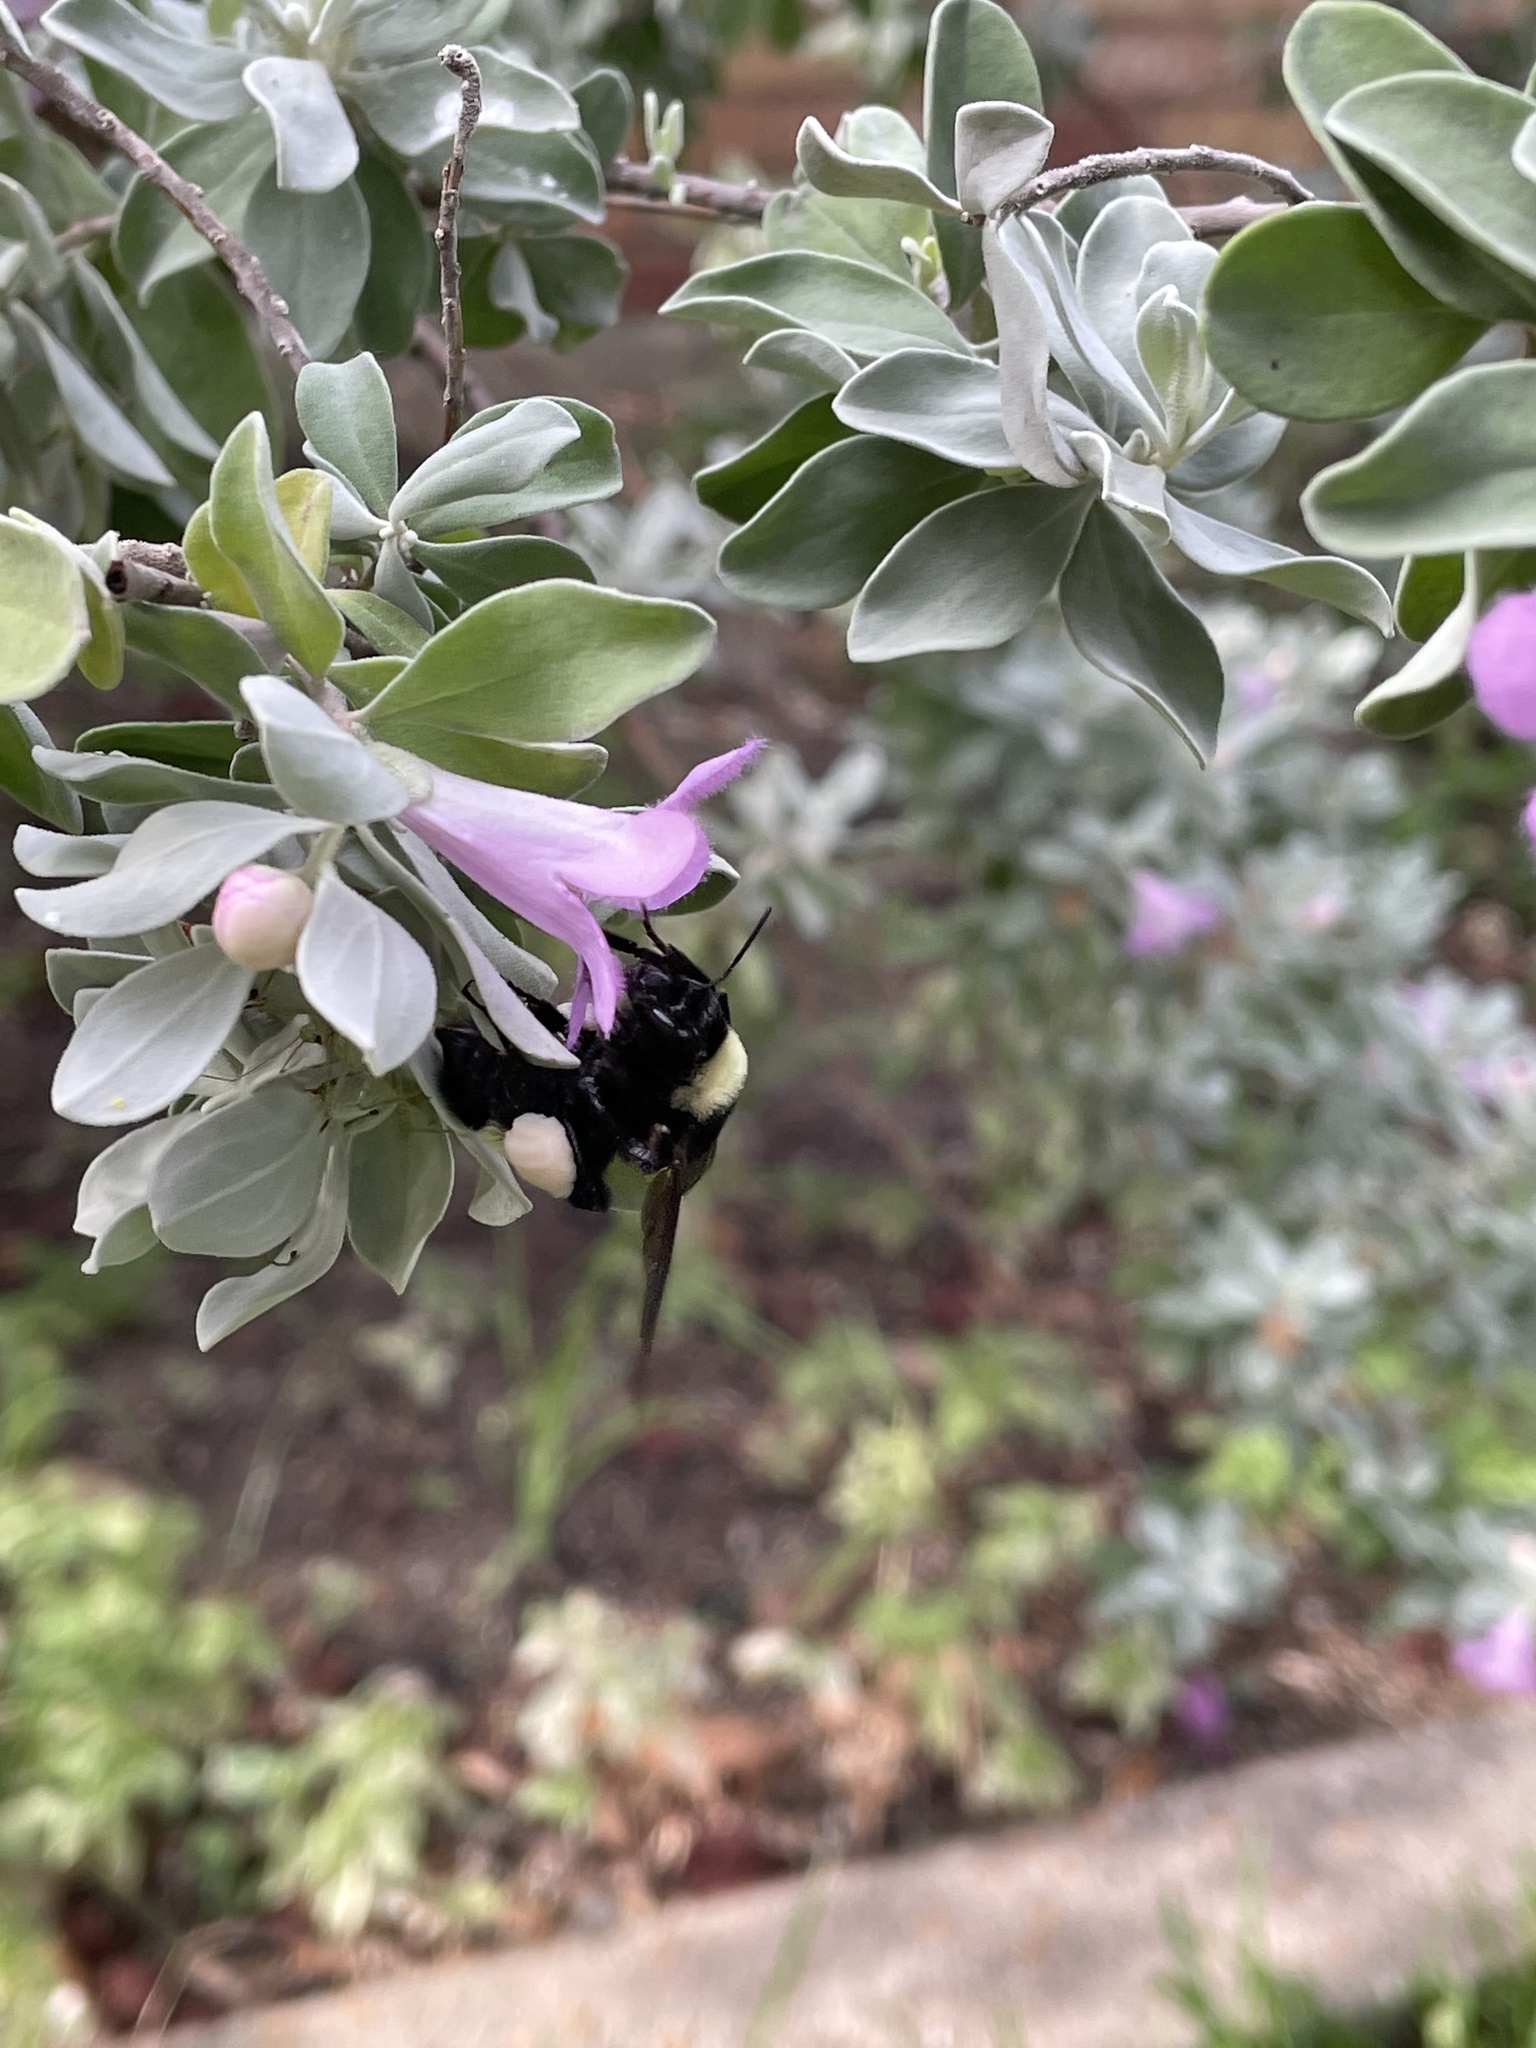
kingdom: Animalia
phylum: Arthropoda
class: Insecta
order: Hymenoptera
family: Apidae
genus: Bombus
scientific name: Bombus pensylvanicus
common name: Bumble bee
